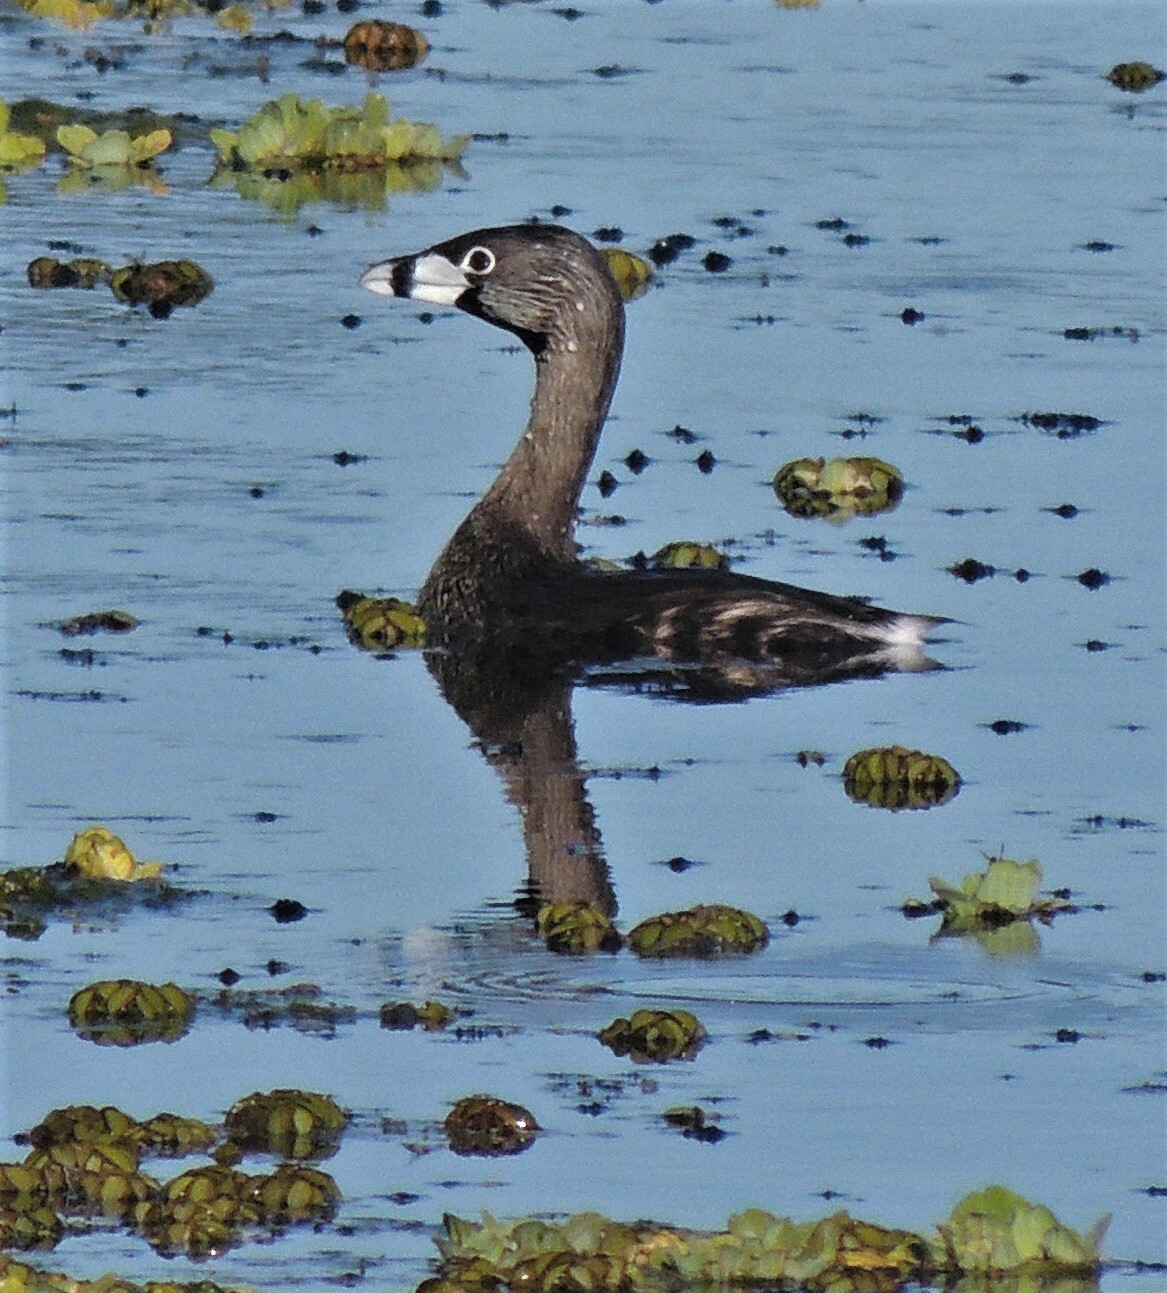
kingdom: Animalia
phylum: Chordata
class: Aves
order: Podicipediformes
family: Podicipedidae
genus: Podilymbus
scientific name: Podilymbus podiceps
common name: Pied-billed grebe
